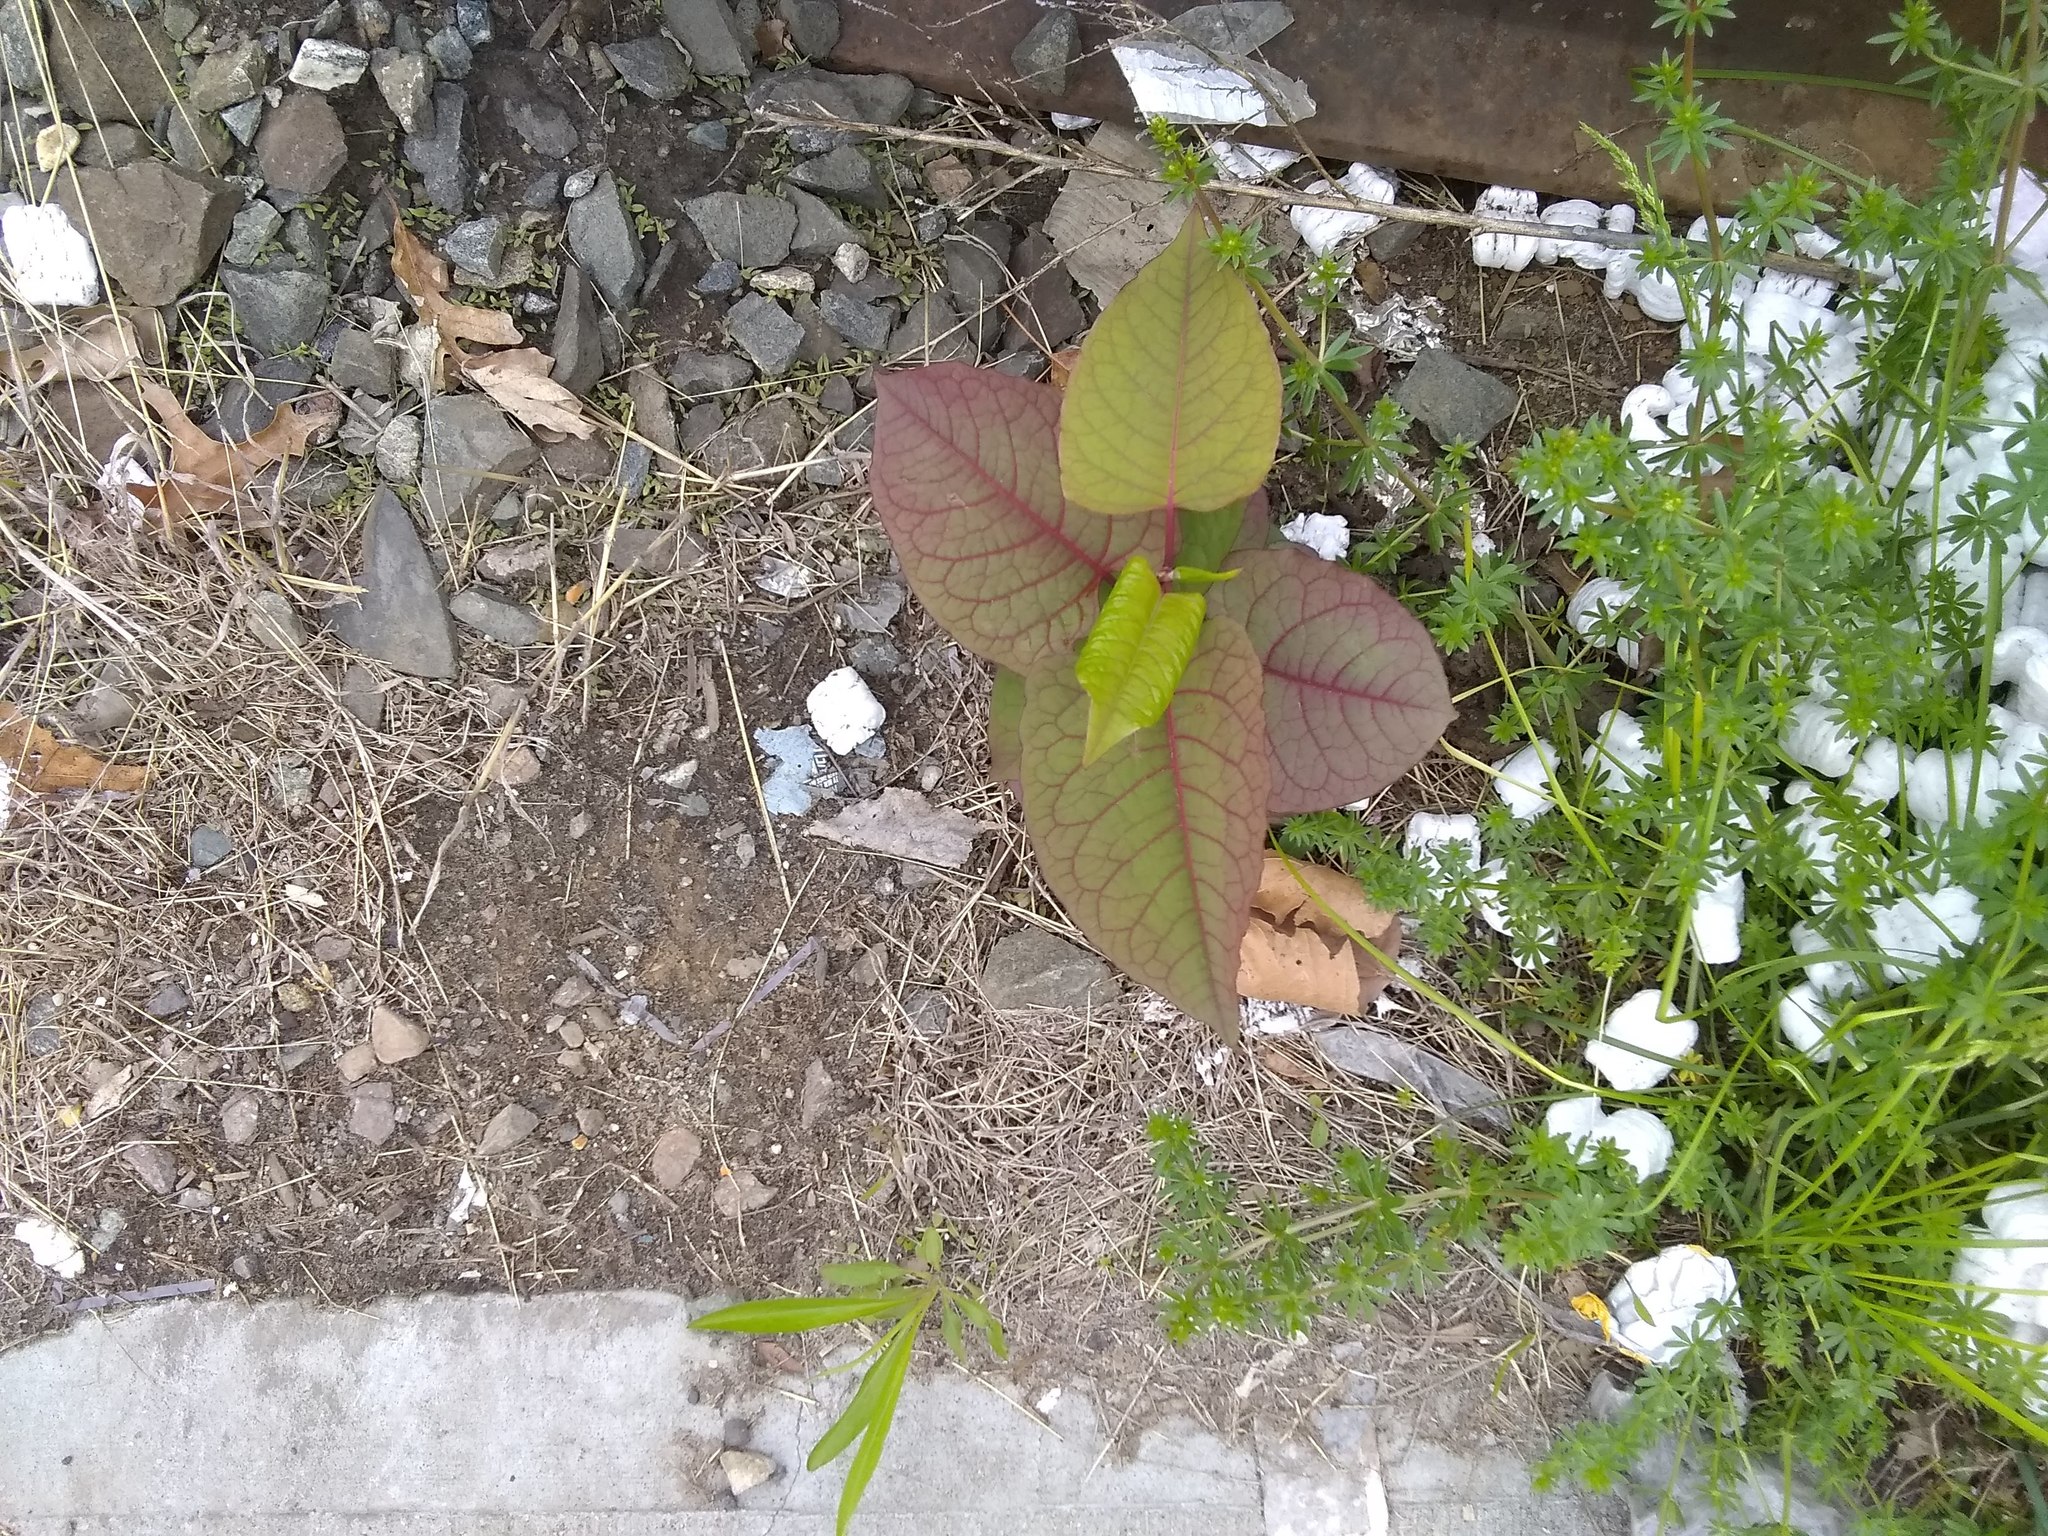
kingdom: Plantae
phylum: Tracheophyta
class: Magnoliopsida
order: Caryophyllales
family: Polygonaceae
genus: Reynoutria
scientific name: Reynoutria japonica
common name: Japanese knotweed
